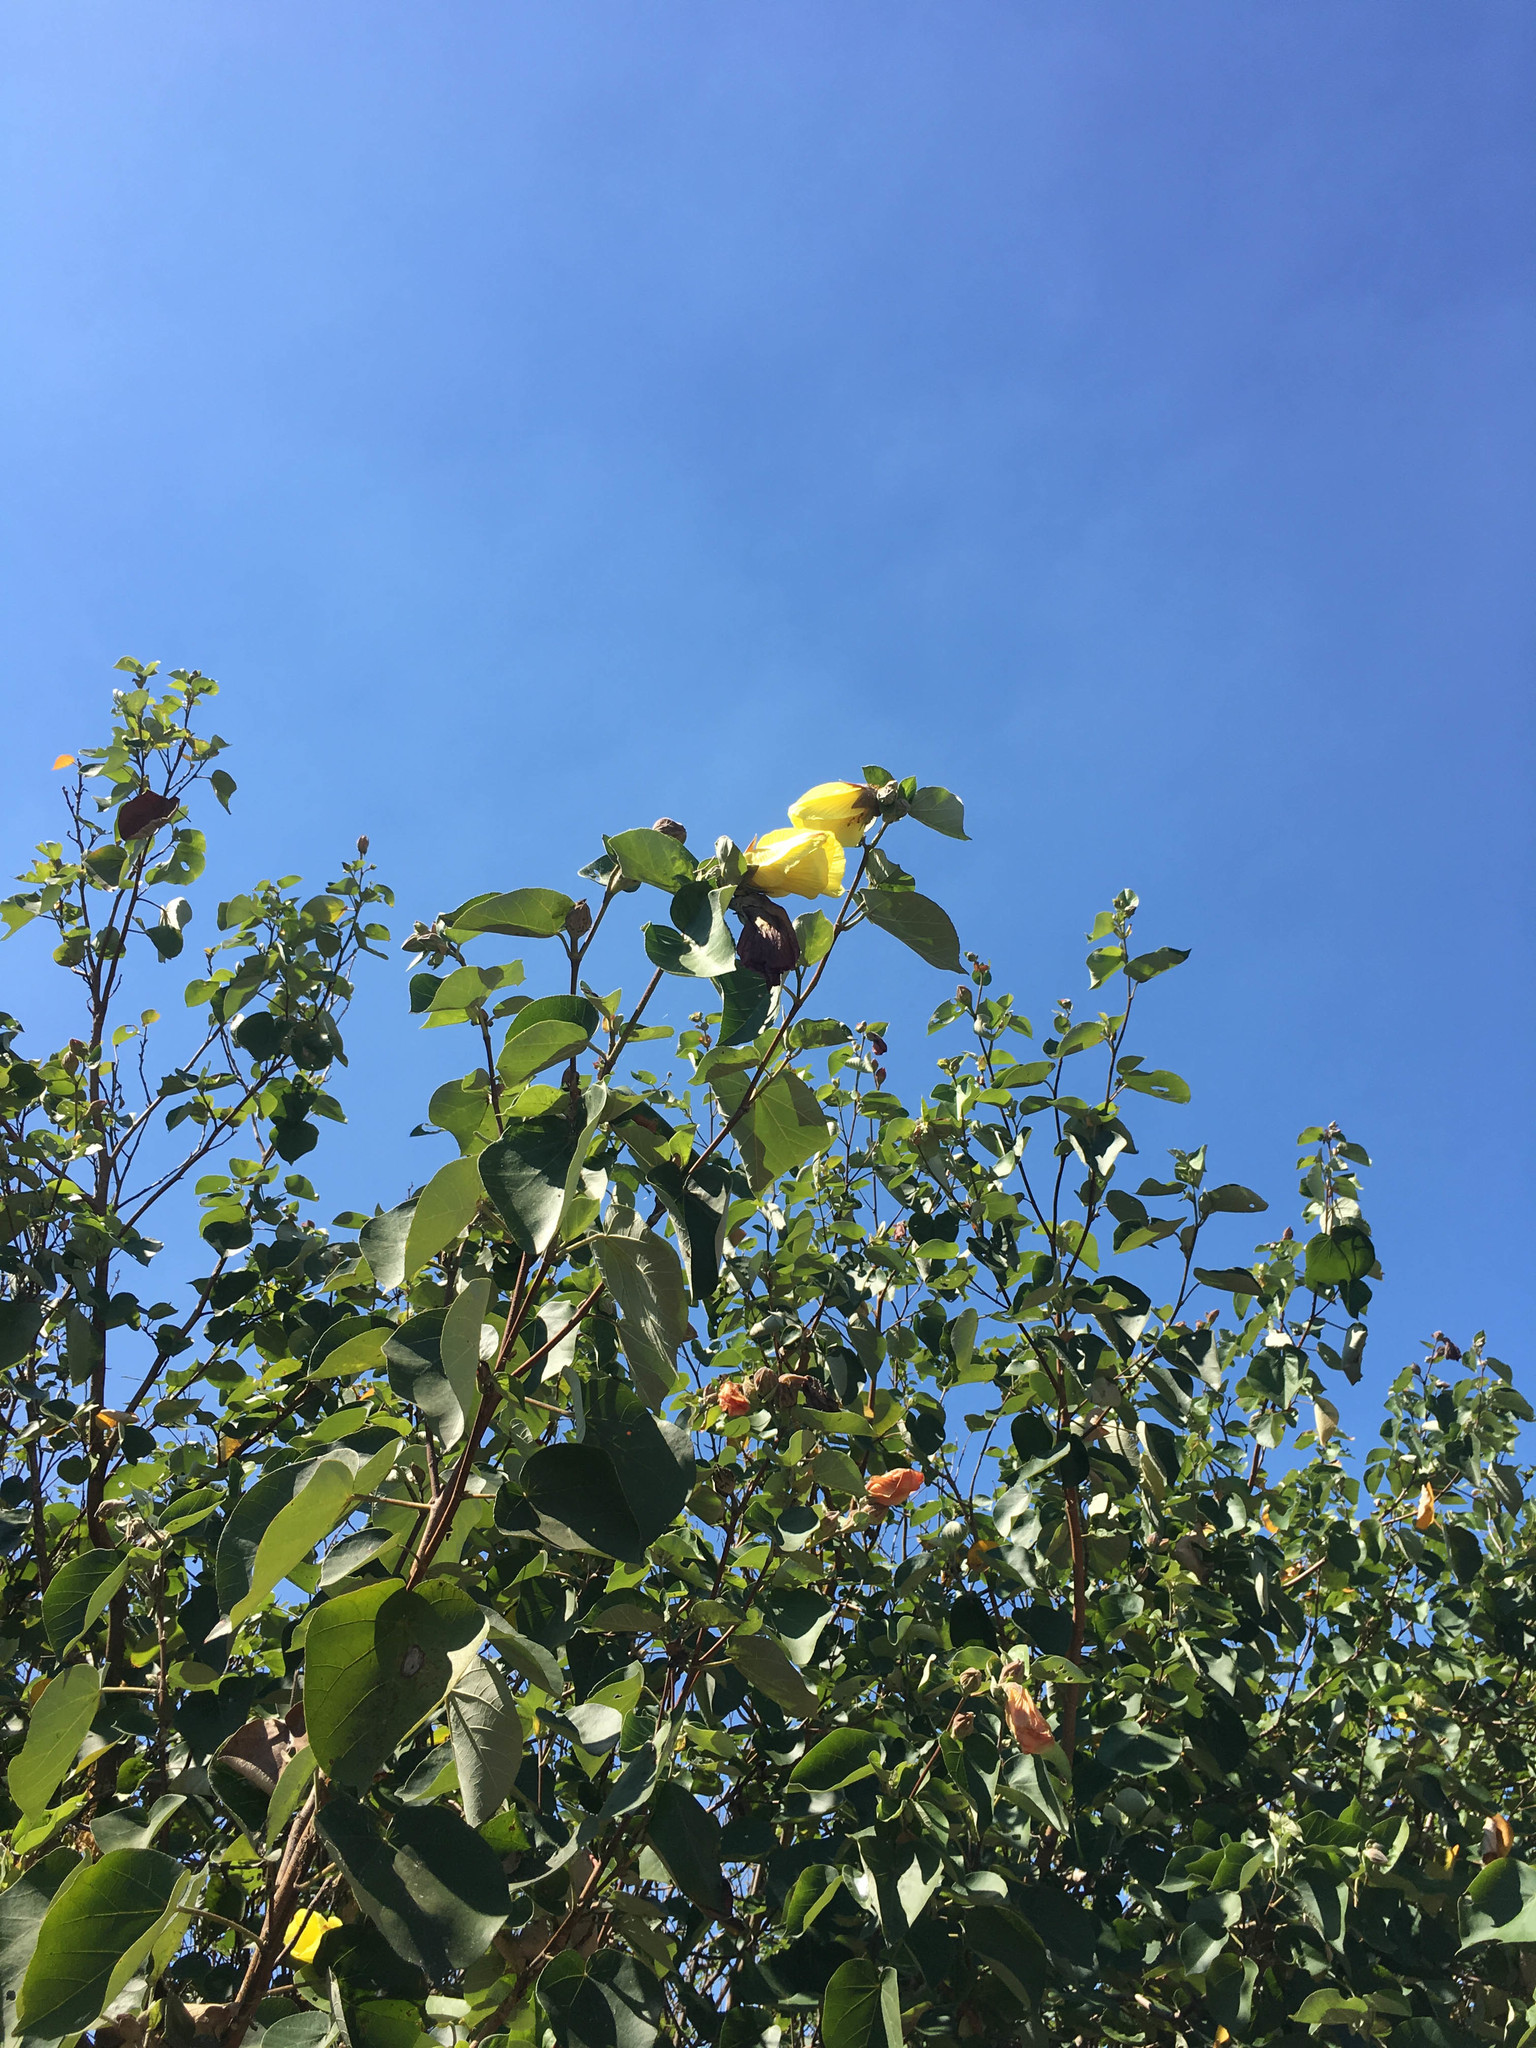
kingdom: Plantae
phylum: Tracheophyta
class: Magnoliopsida
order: Malvales
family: Malvaceae
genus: Talipariti
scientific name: Talipariti tiliaceum
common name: Sea hibiscus
